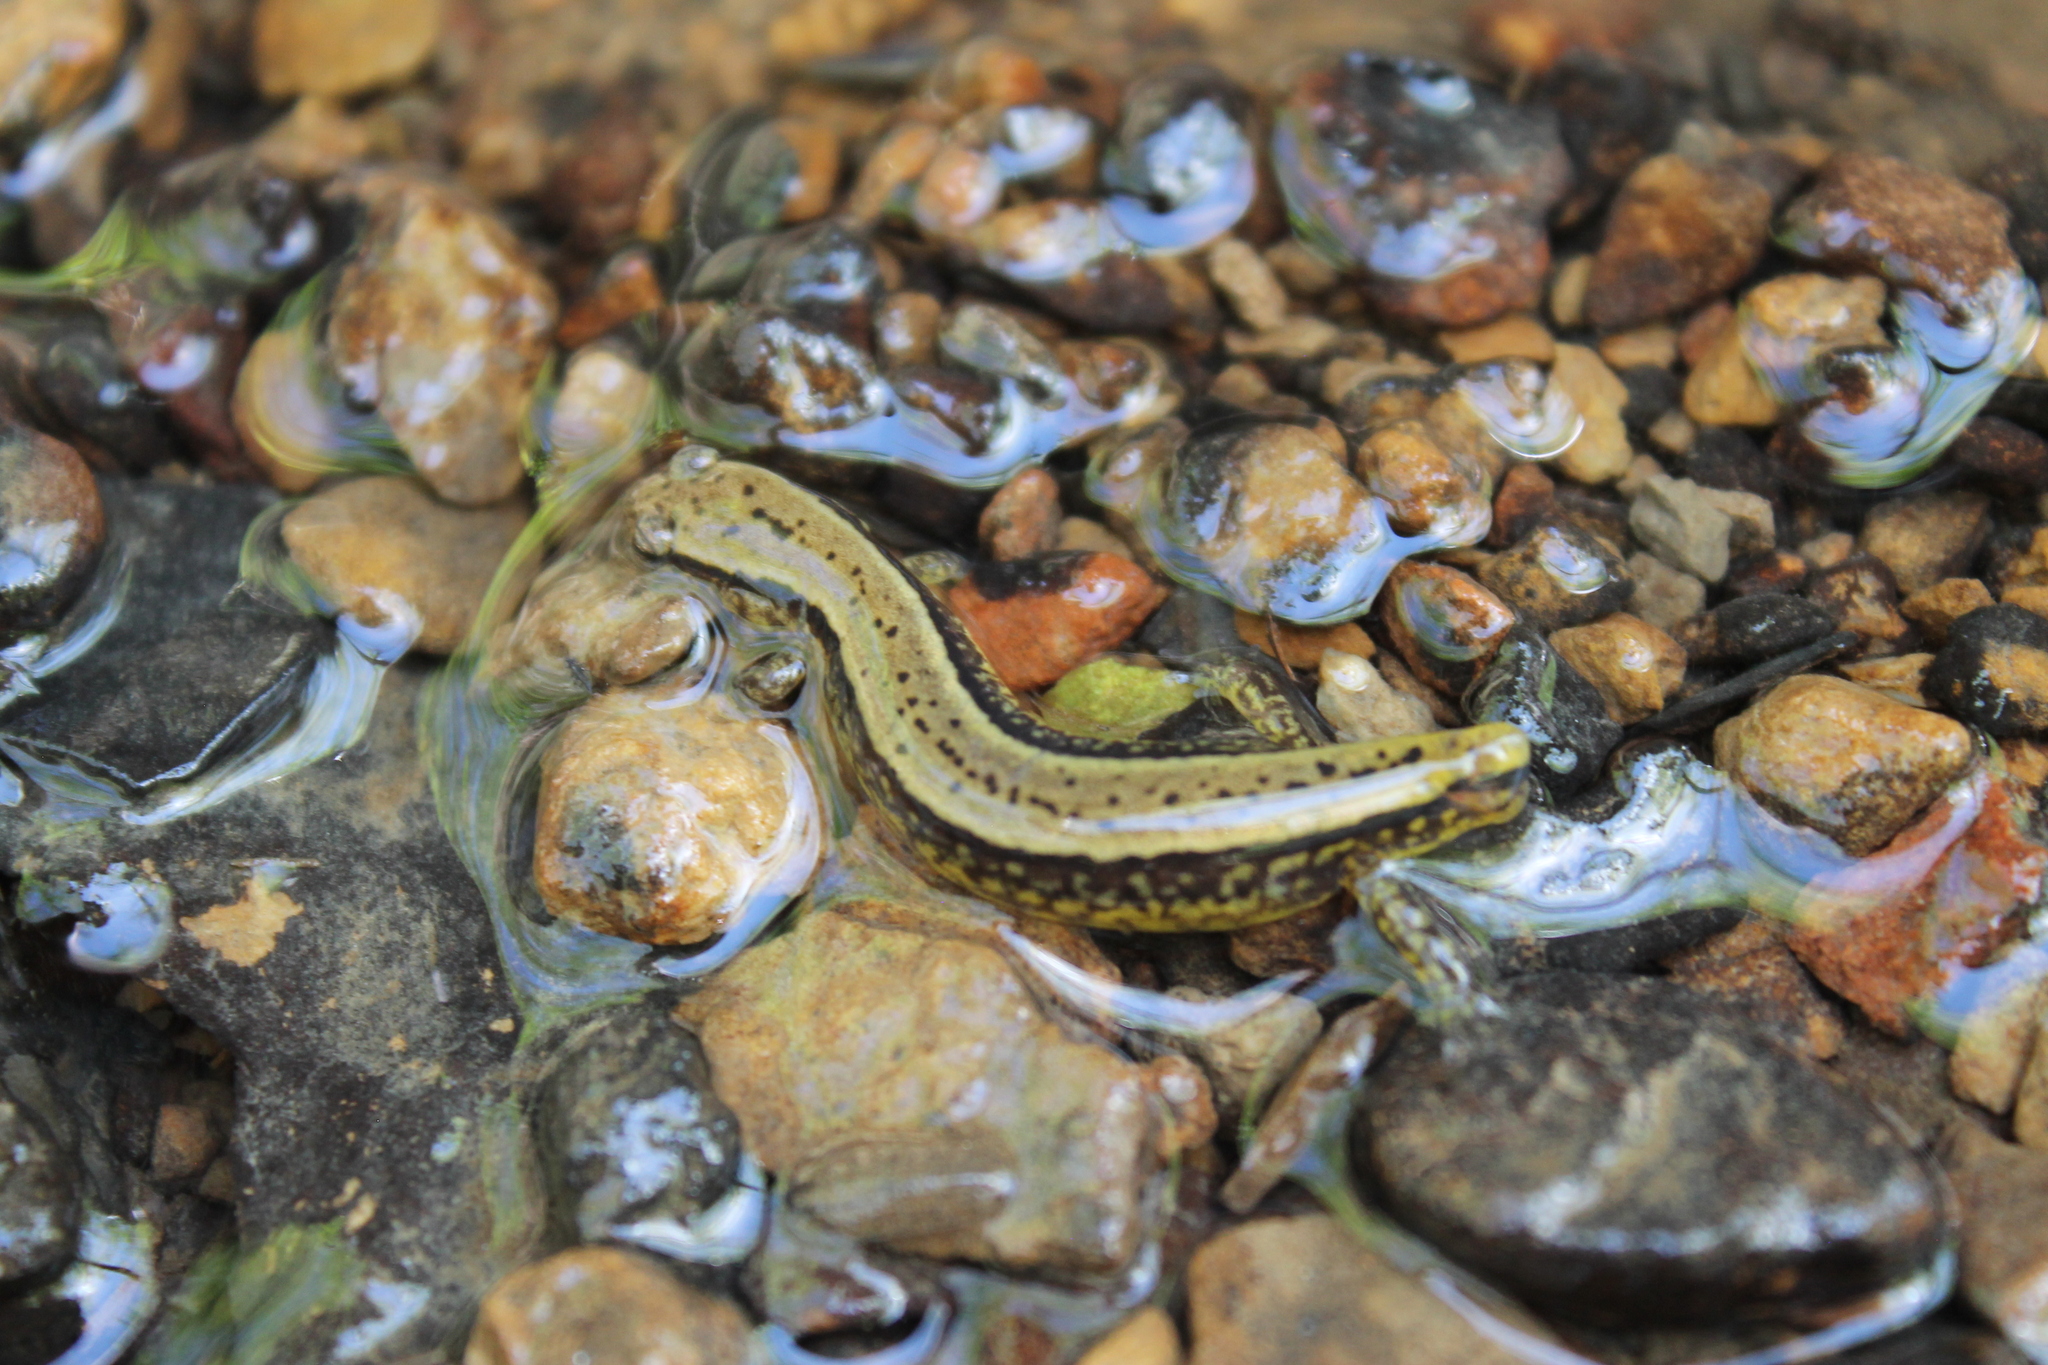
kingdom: Animalia
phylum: Chordata
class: Amphibia
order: Caudata
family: Plethodontidae
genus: Eurycea
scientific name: Eurycea cirrigera
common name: Southern two-lined salamander
